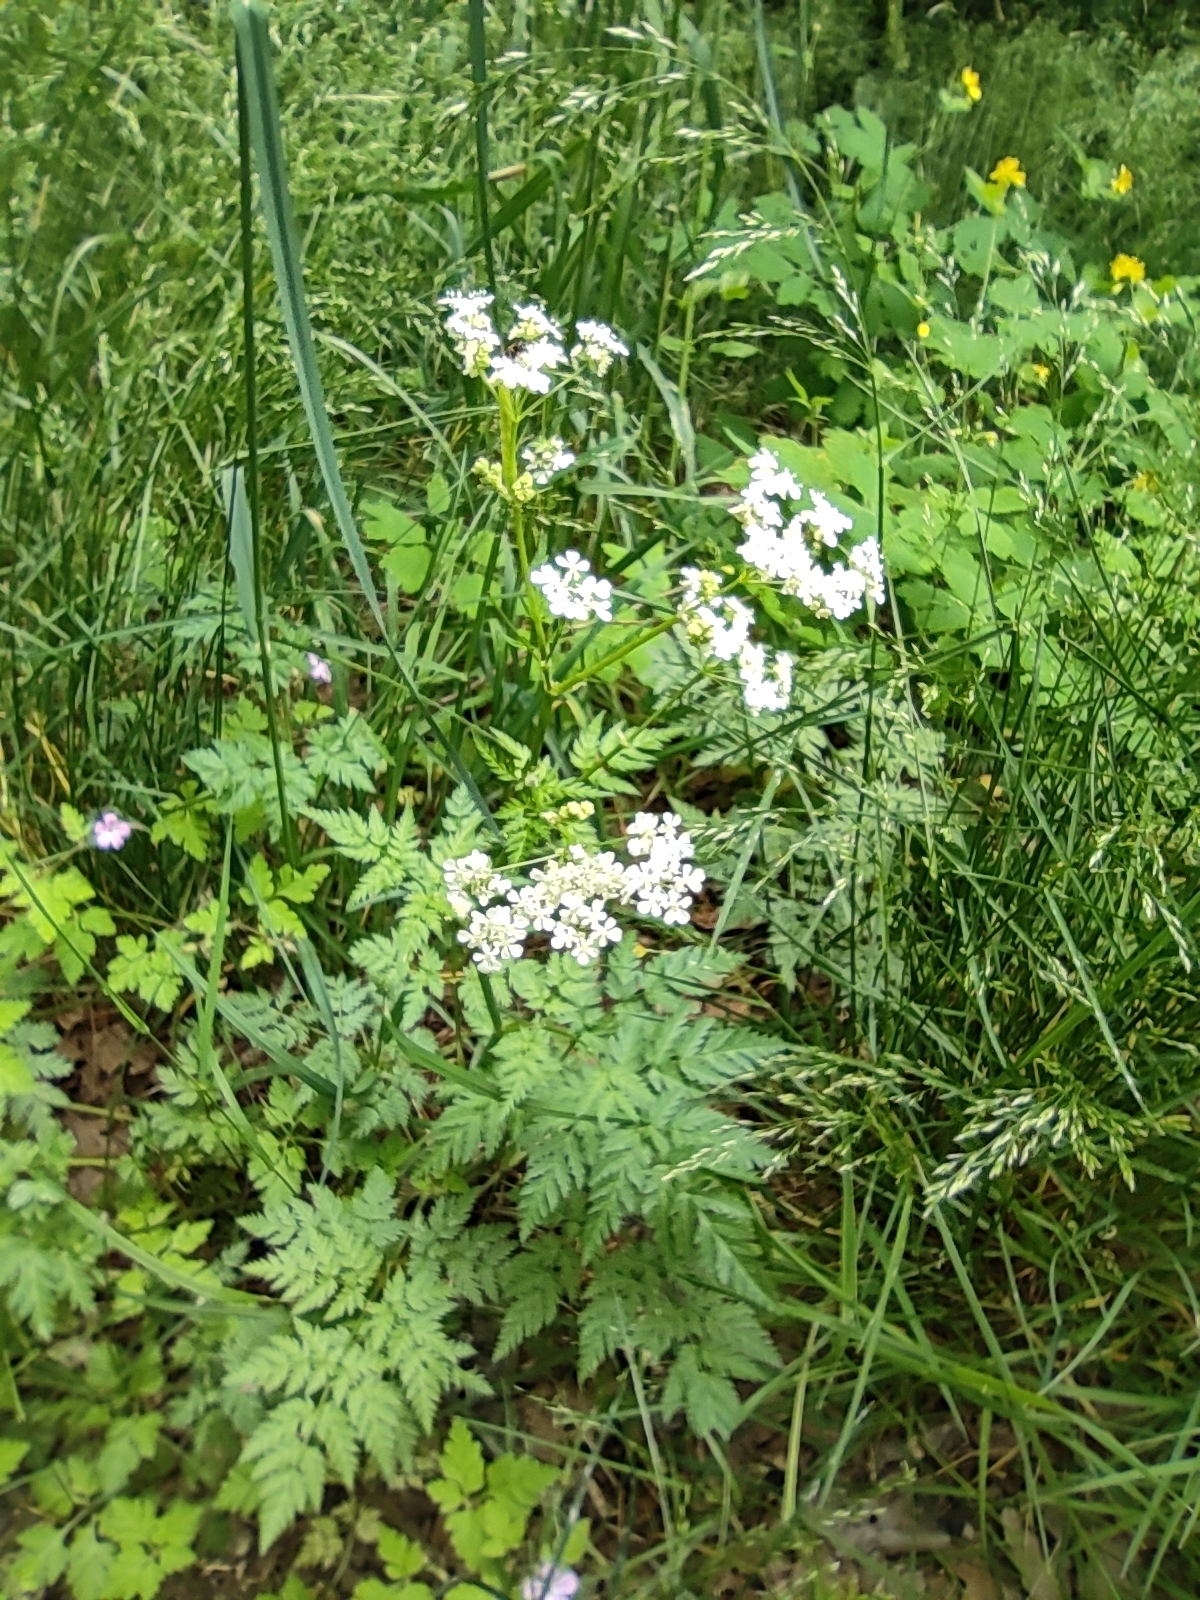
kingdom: Plantae
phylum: Tracheophyta
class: Magnoliopsida
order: Apiales
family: Apiaceae
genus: Anthriscus
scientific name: Anthriscus sylvestris
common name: Cow parsley
